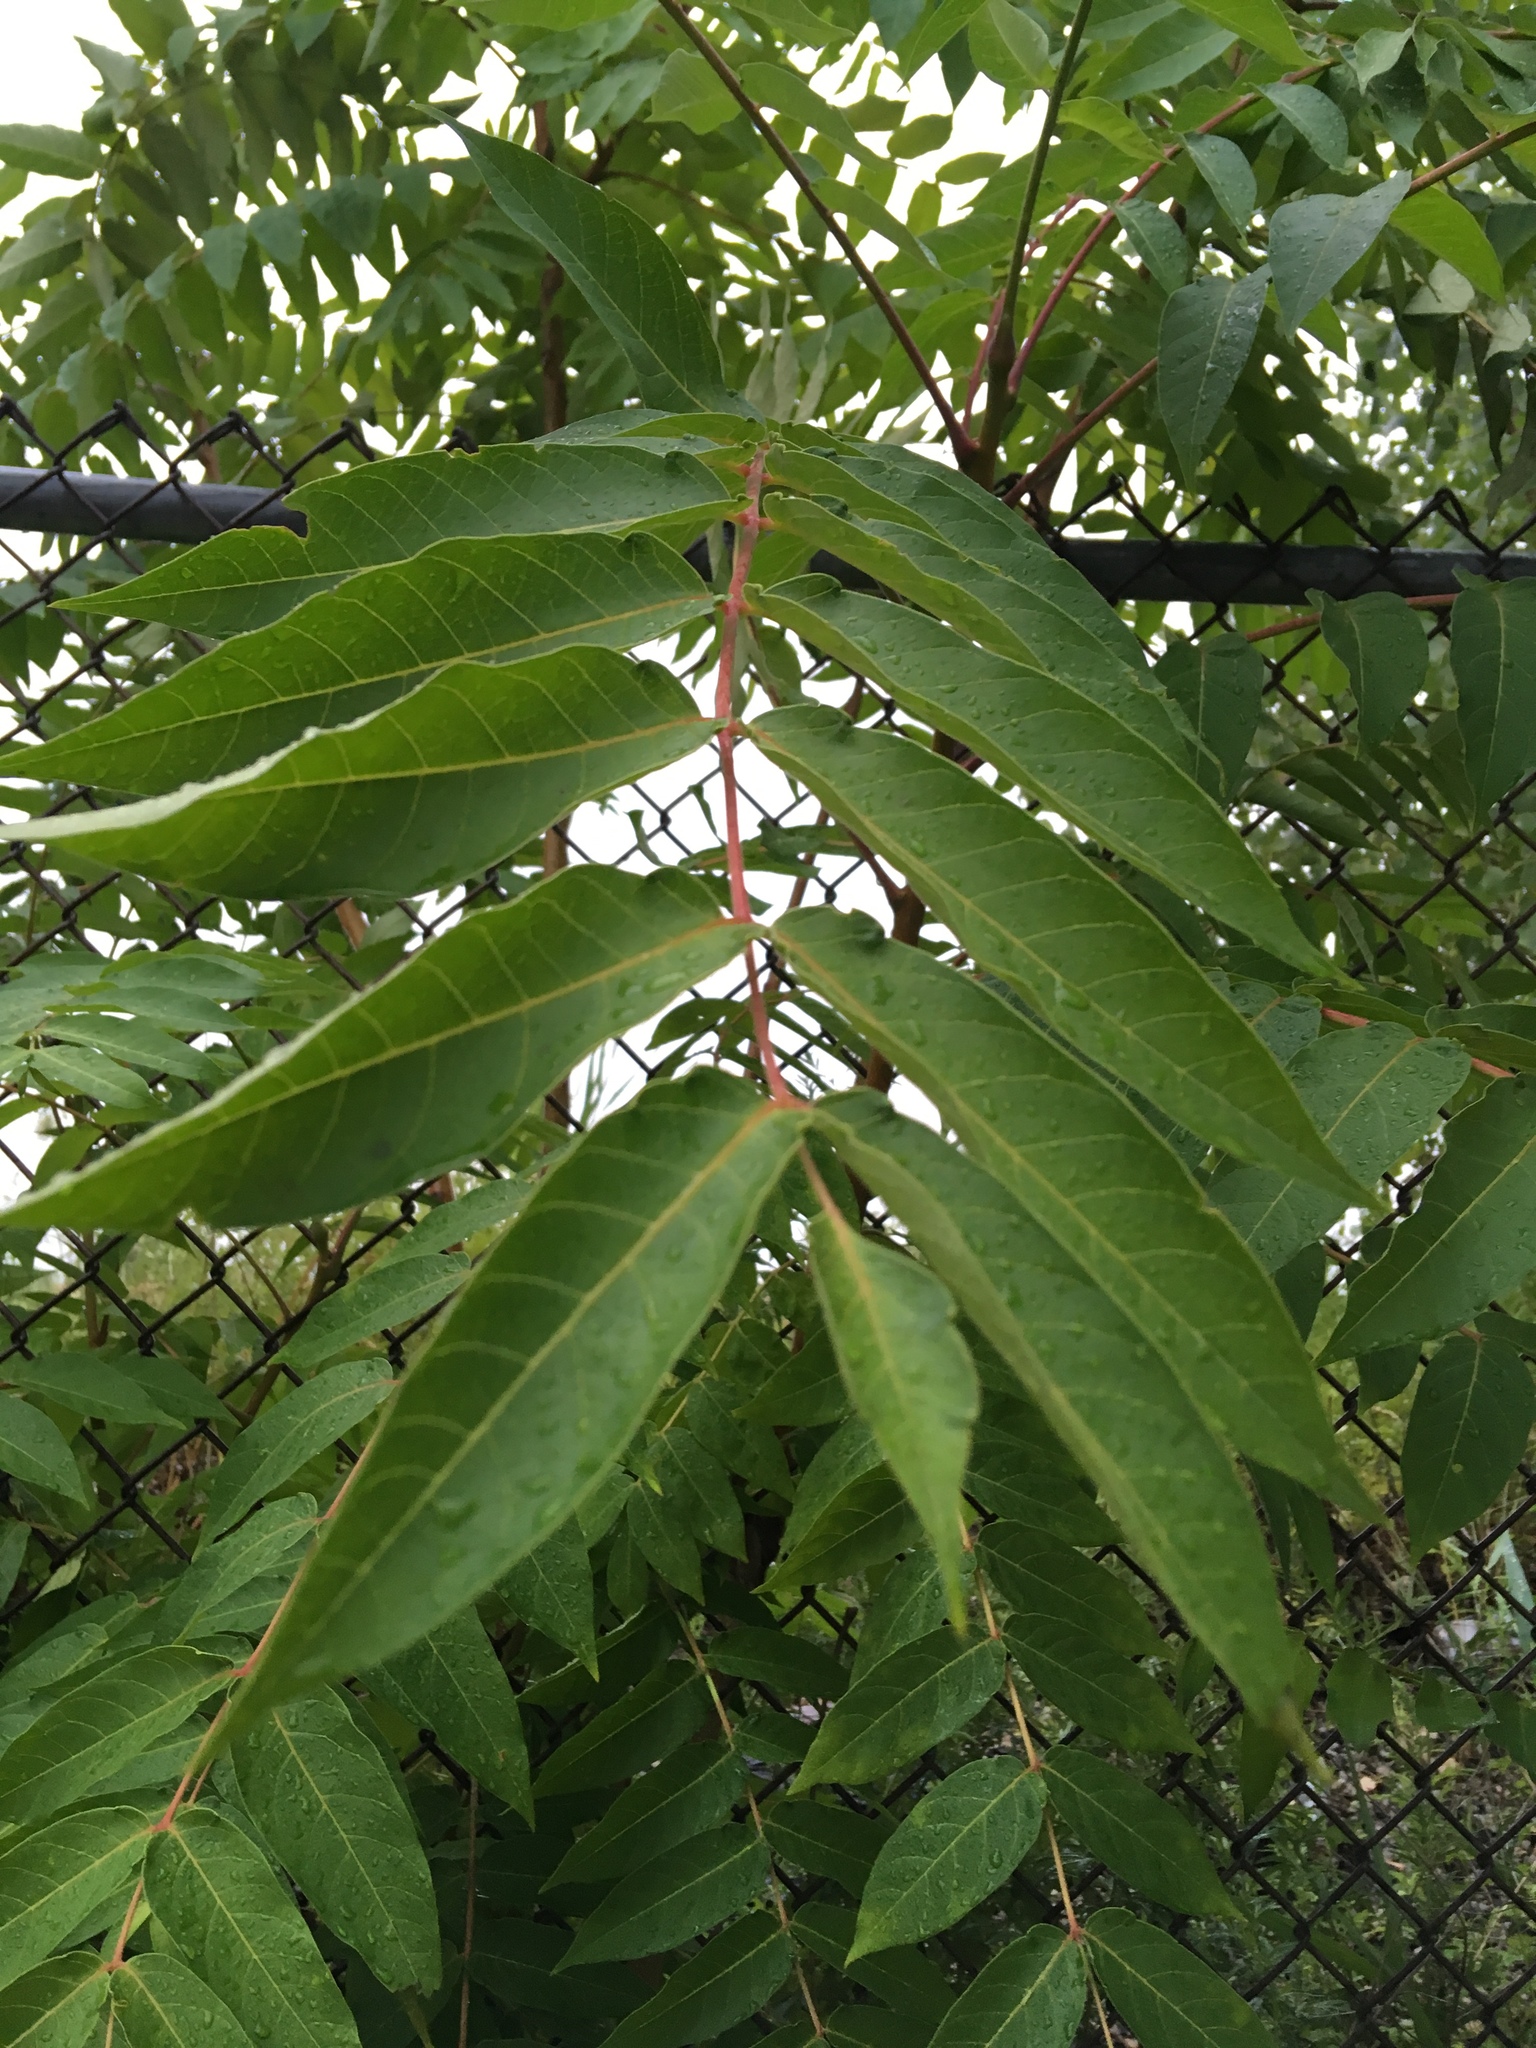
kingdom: Plantae
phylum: Tracheophyta
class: Magnoliopsida
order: Sapindales
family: Simaroubaceae
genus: Ailanthus
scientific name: Ailanthus altissima
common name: Tree-of-heaven
